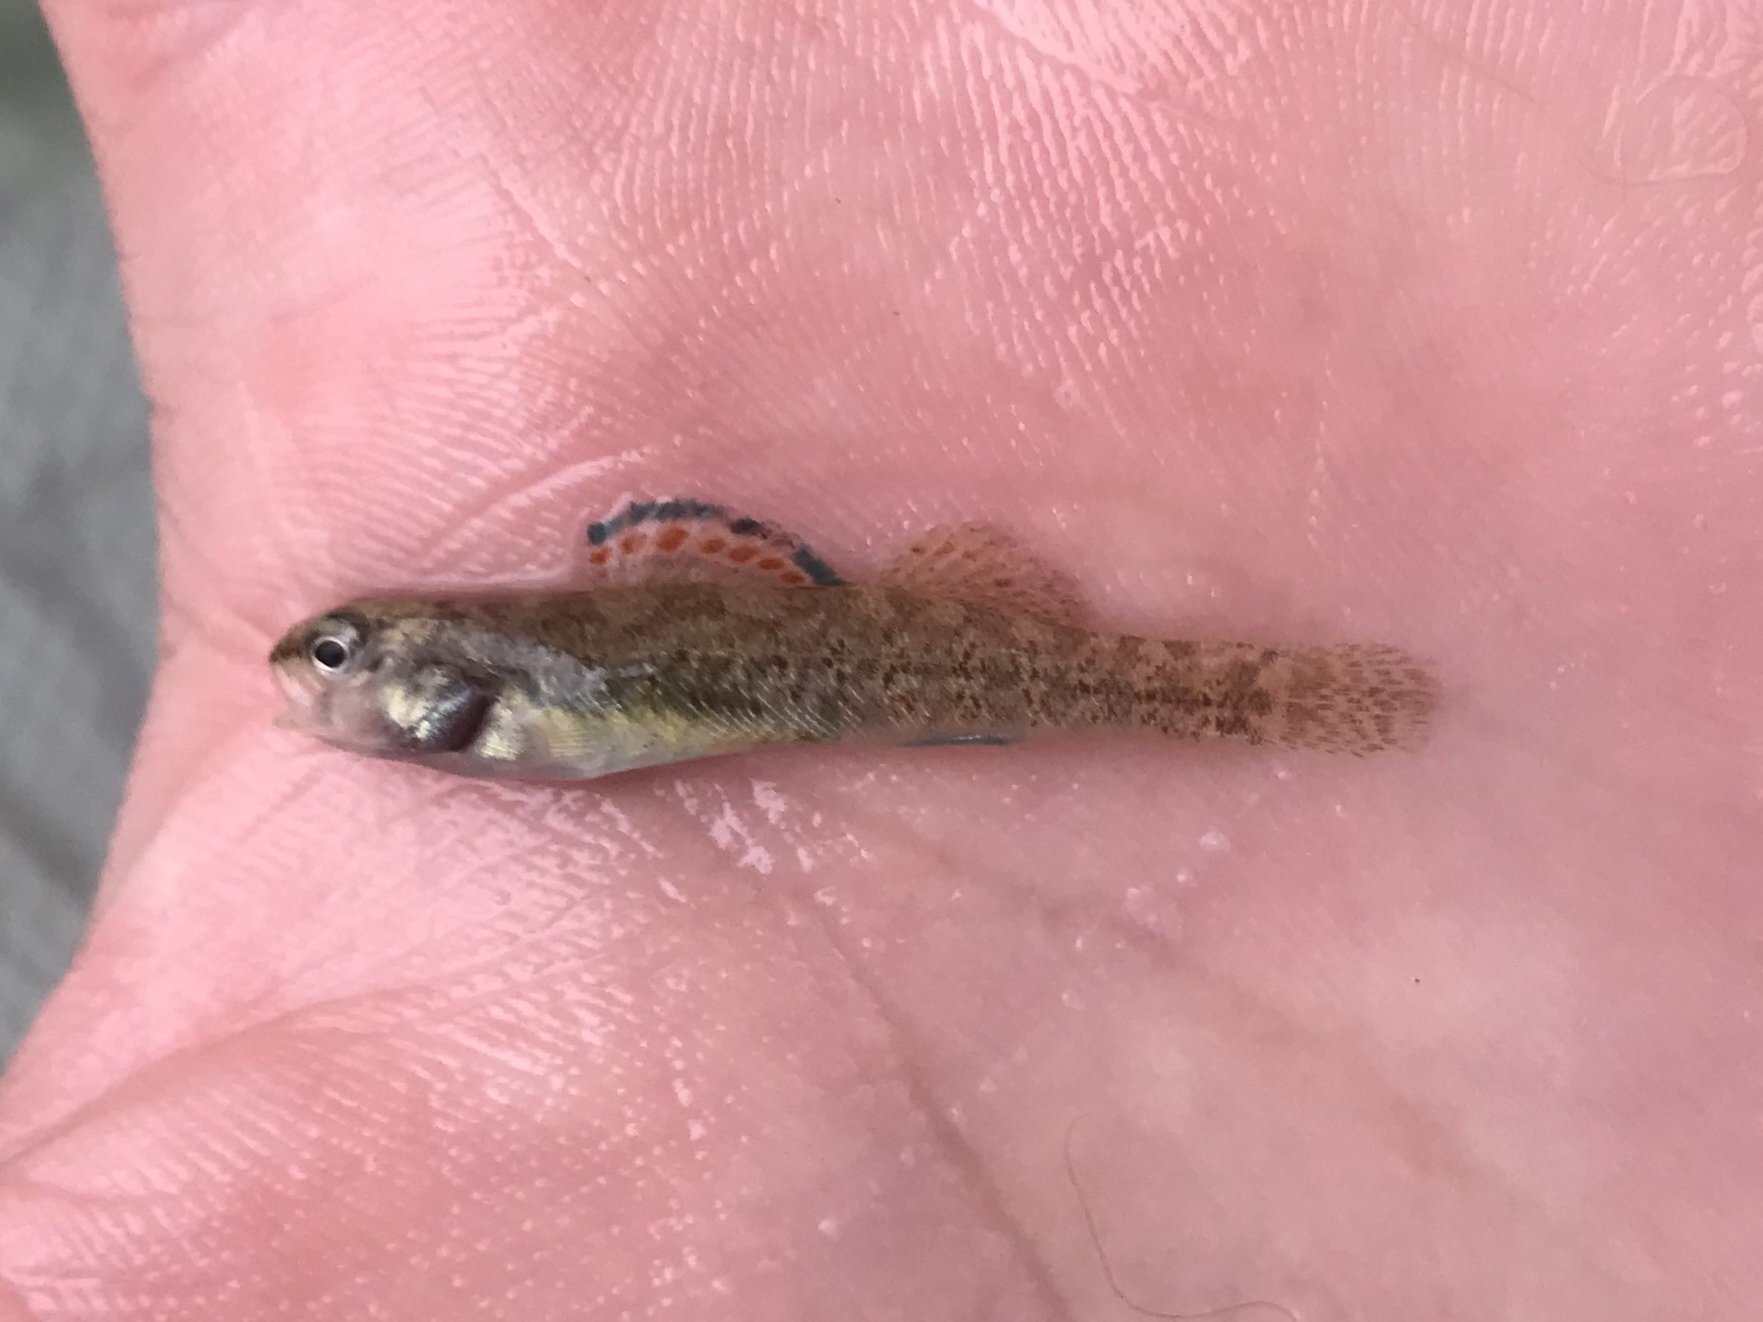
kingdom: Animalia
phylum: Chordata
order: Perciformes
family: Percidae
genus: Etheostoma
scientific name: Etheostoma lepidum
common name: Greenthroat darter
